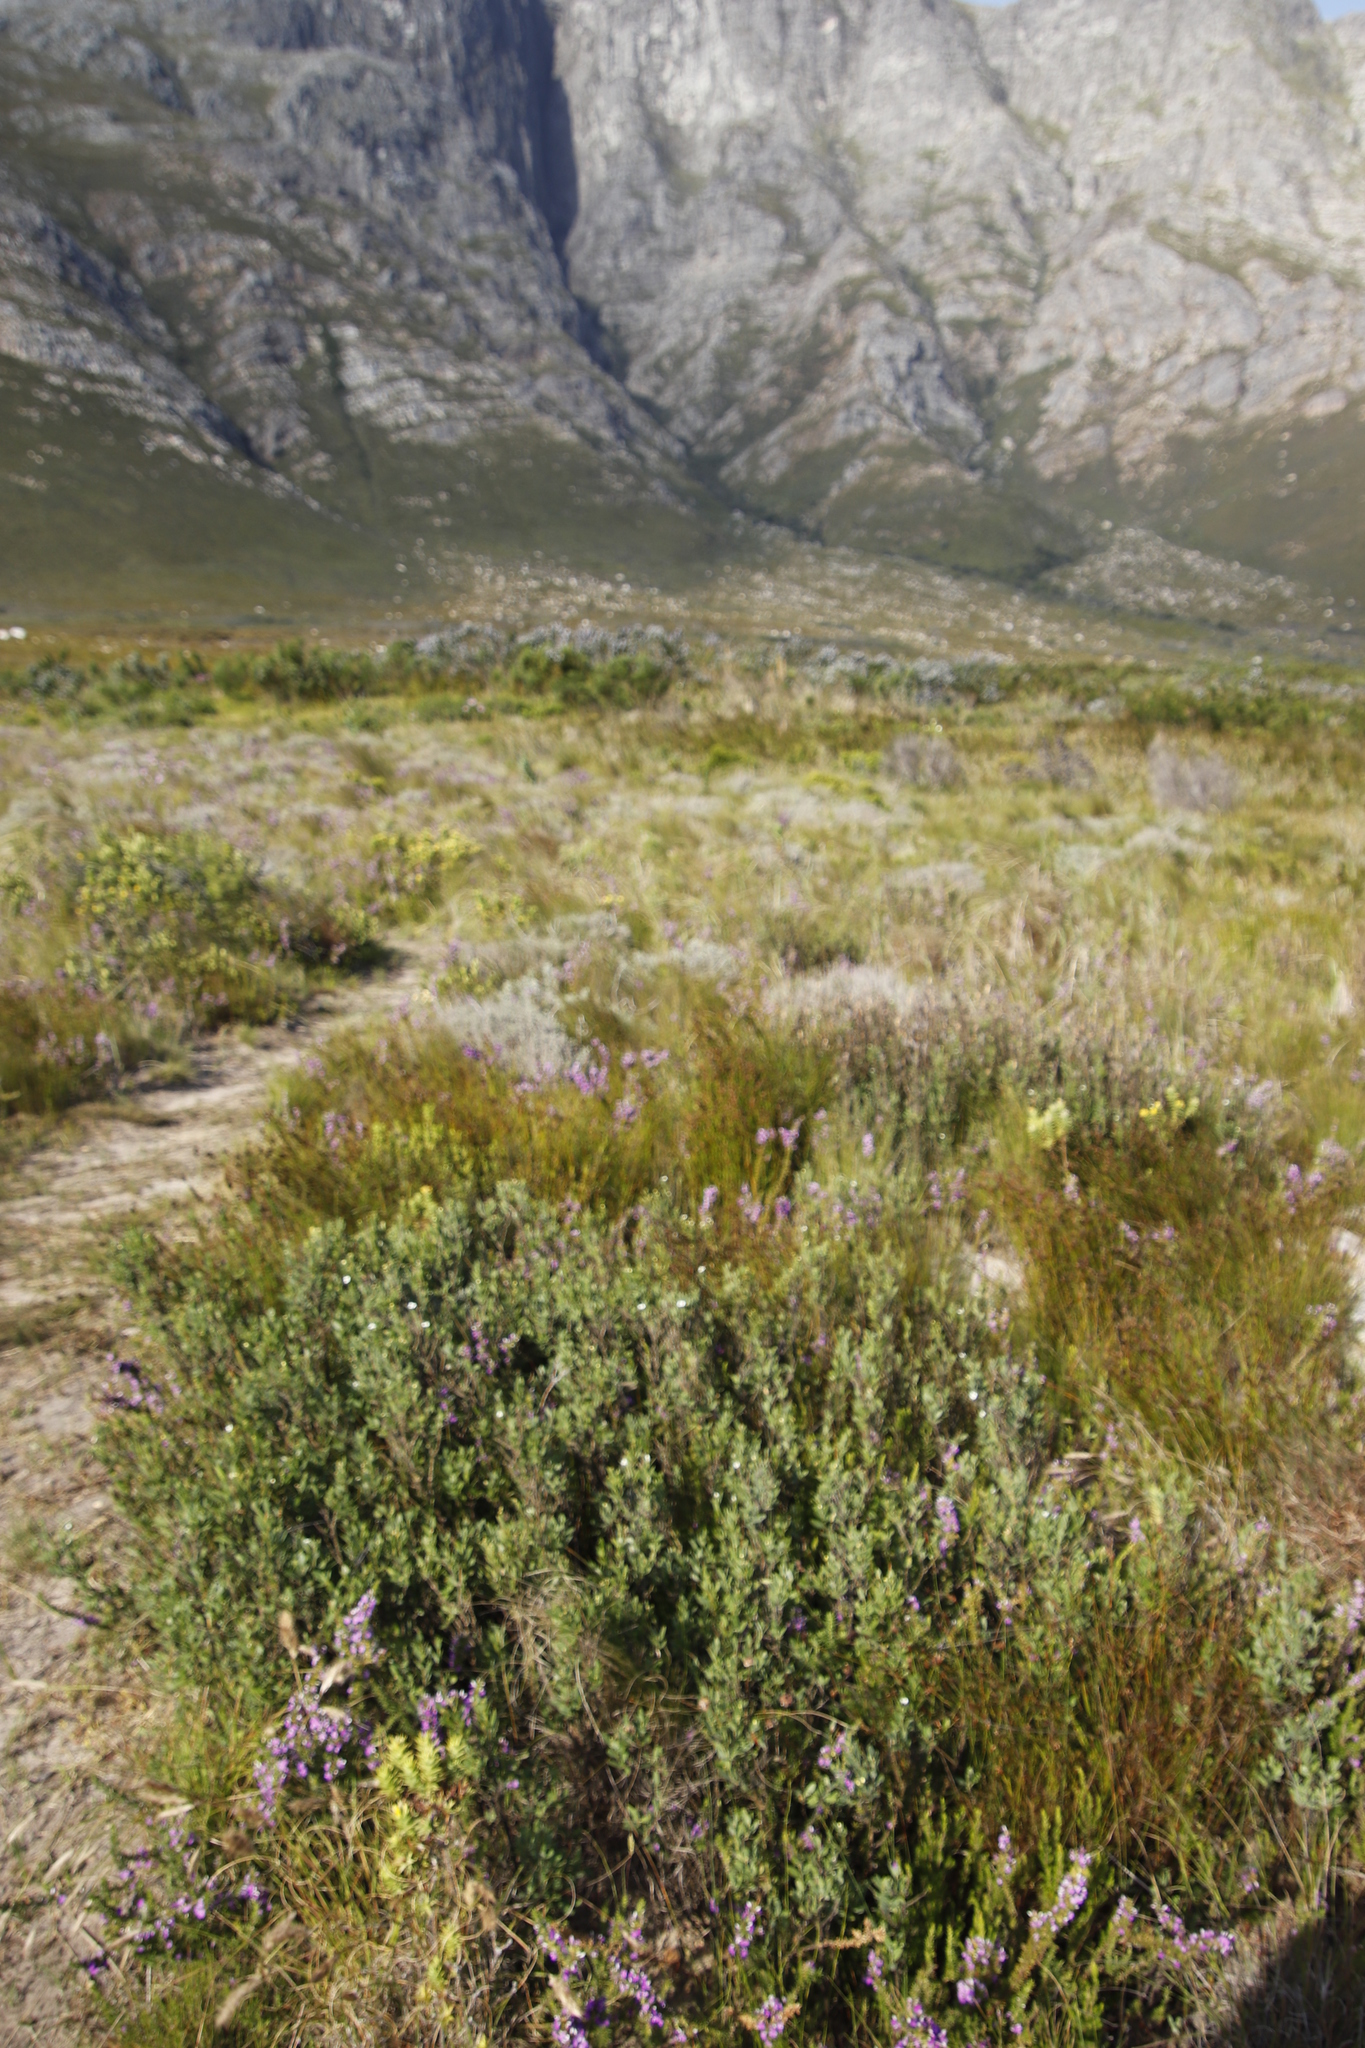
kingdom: Plantae
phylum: Tracheophyta
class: Magnoliopsida
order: Solanales
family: Montiniaceae
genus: Montinia
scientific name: Montinia caryophyllacea
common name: Wild clove-bush
